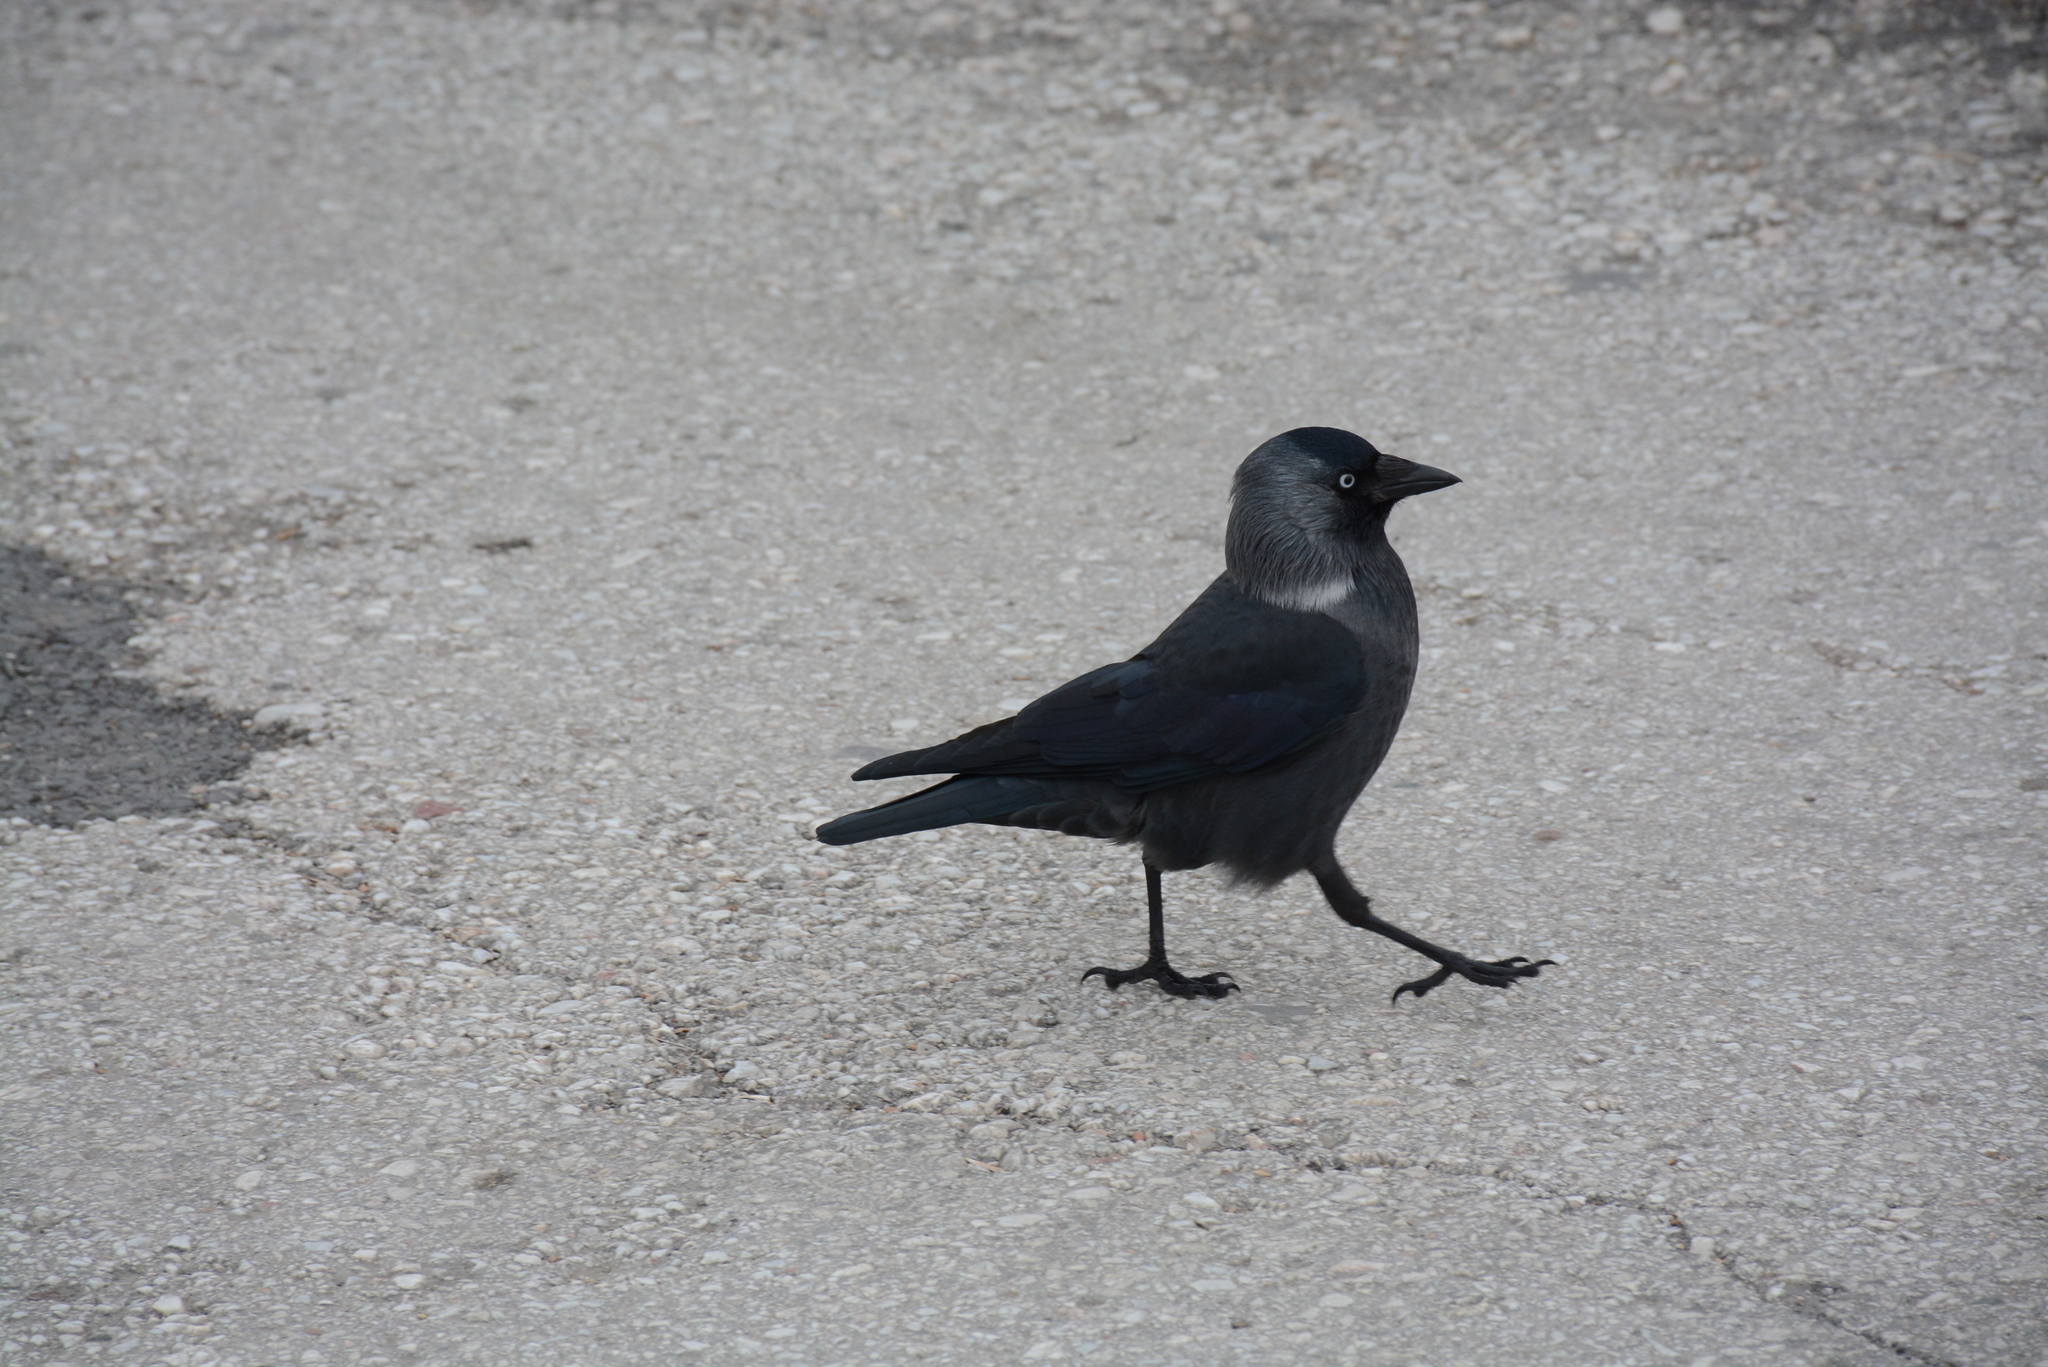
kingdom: Animalia
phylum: Chordata
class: Aves
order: Passeriformes
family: Corvidae
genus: Coloeus
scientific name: Coloeus monedula
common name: Western jackdaw
